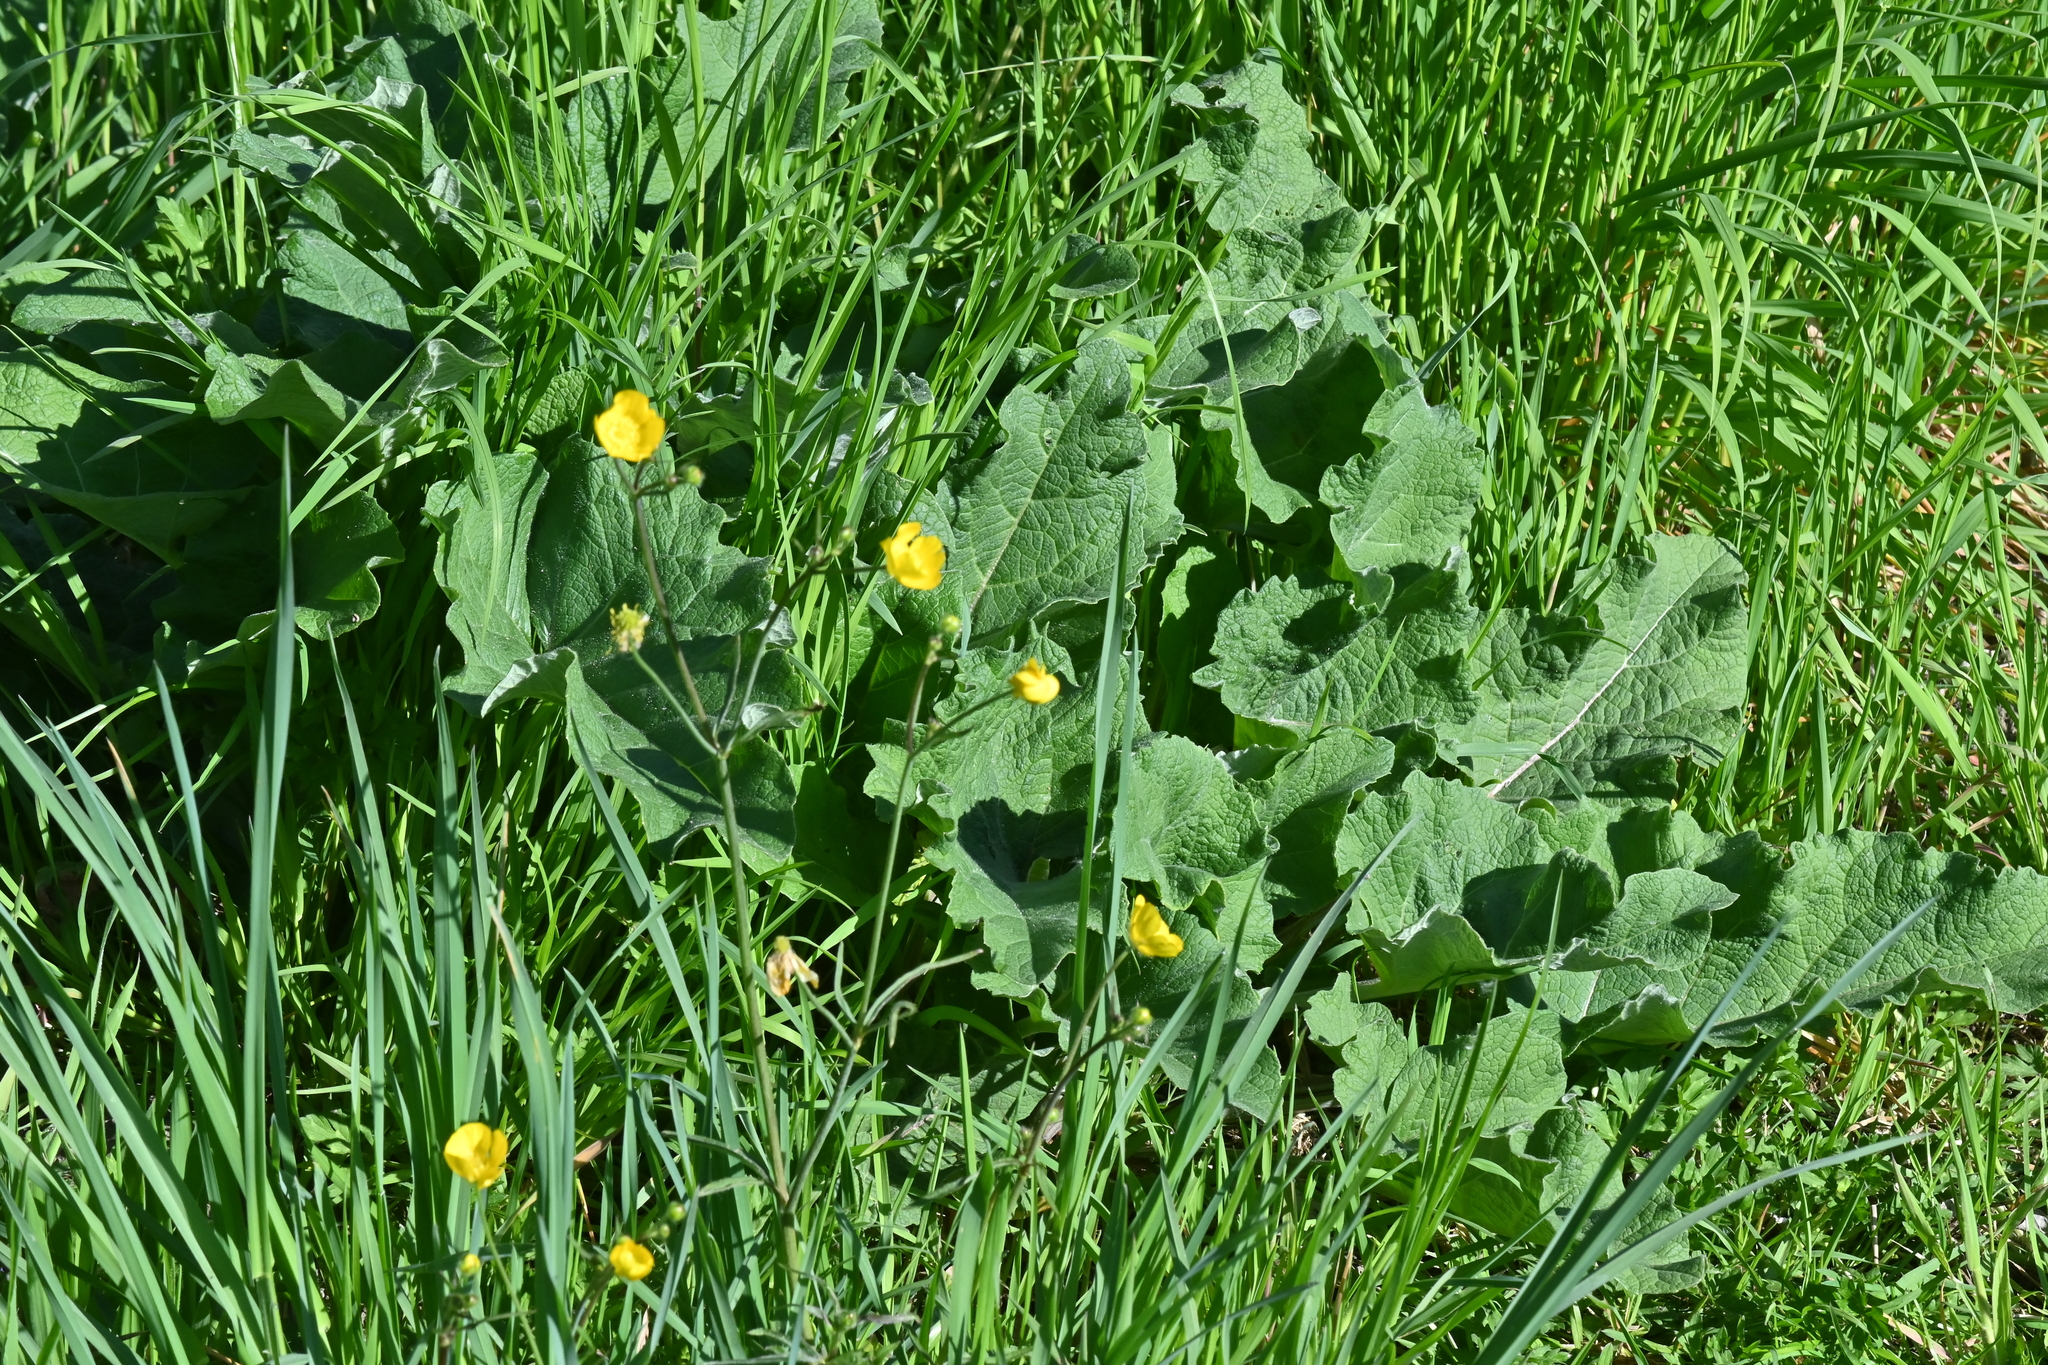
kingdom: Plantae
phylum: Tracheophyta
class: Magnoliopsida
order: Asterales
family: Asteraceae
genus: Arctium
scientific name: Arctium
